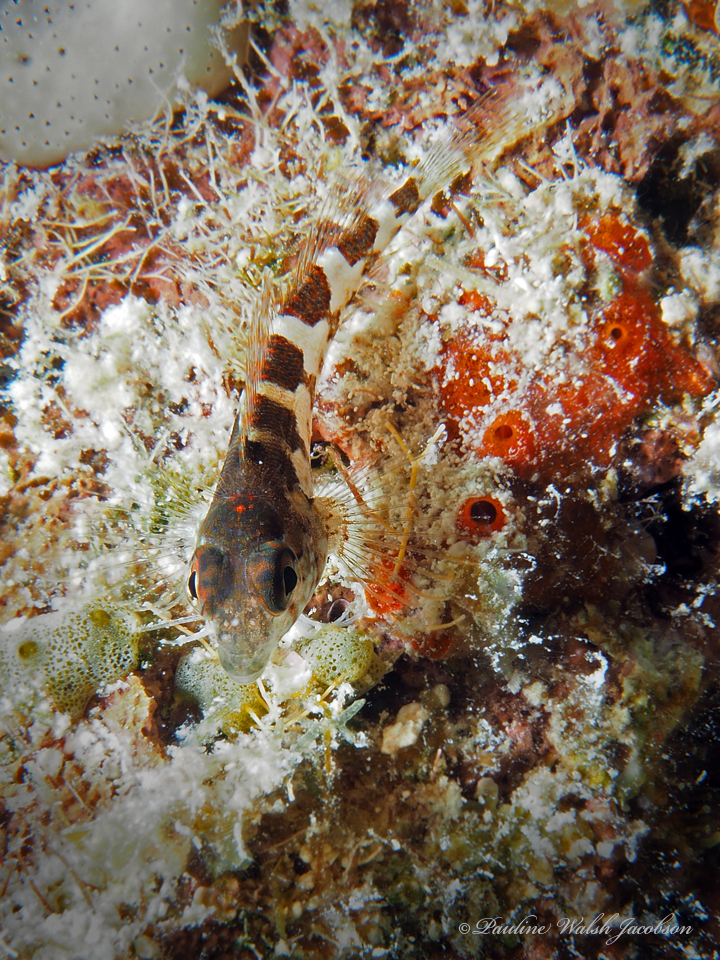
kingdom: Animalia
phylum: Chordata
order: Perciformes
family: Labrisomidae
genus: Malacoctenus
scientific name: Malacoctenus triangulatus
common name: Saddled blenny
